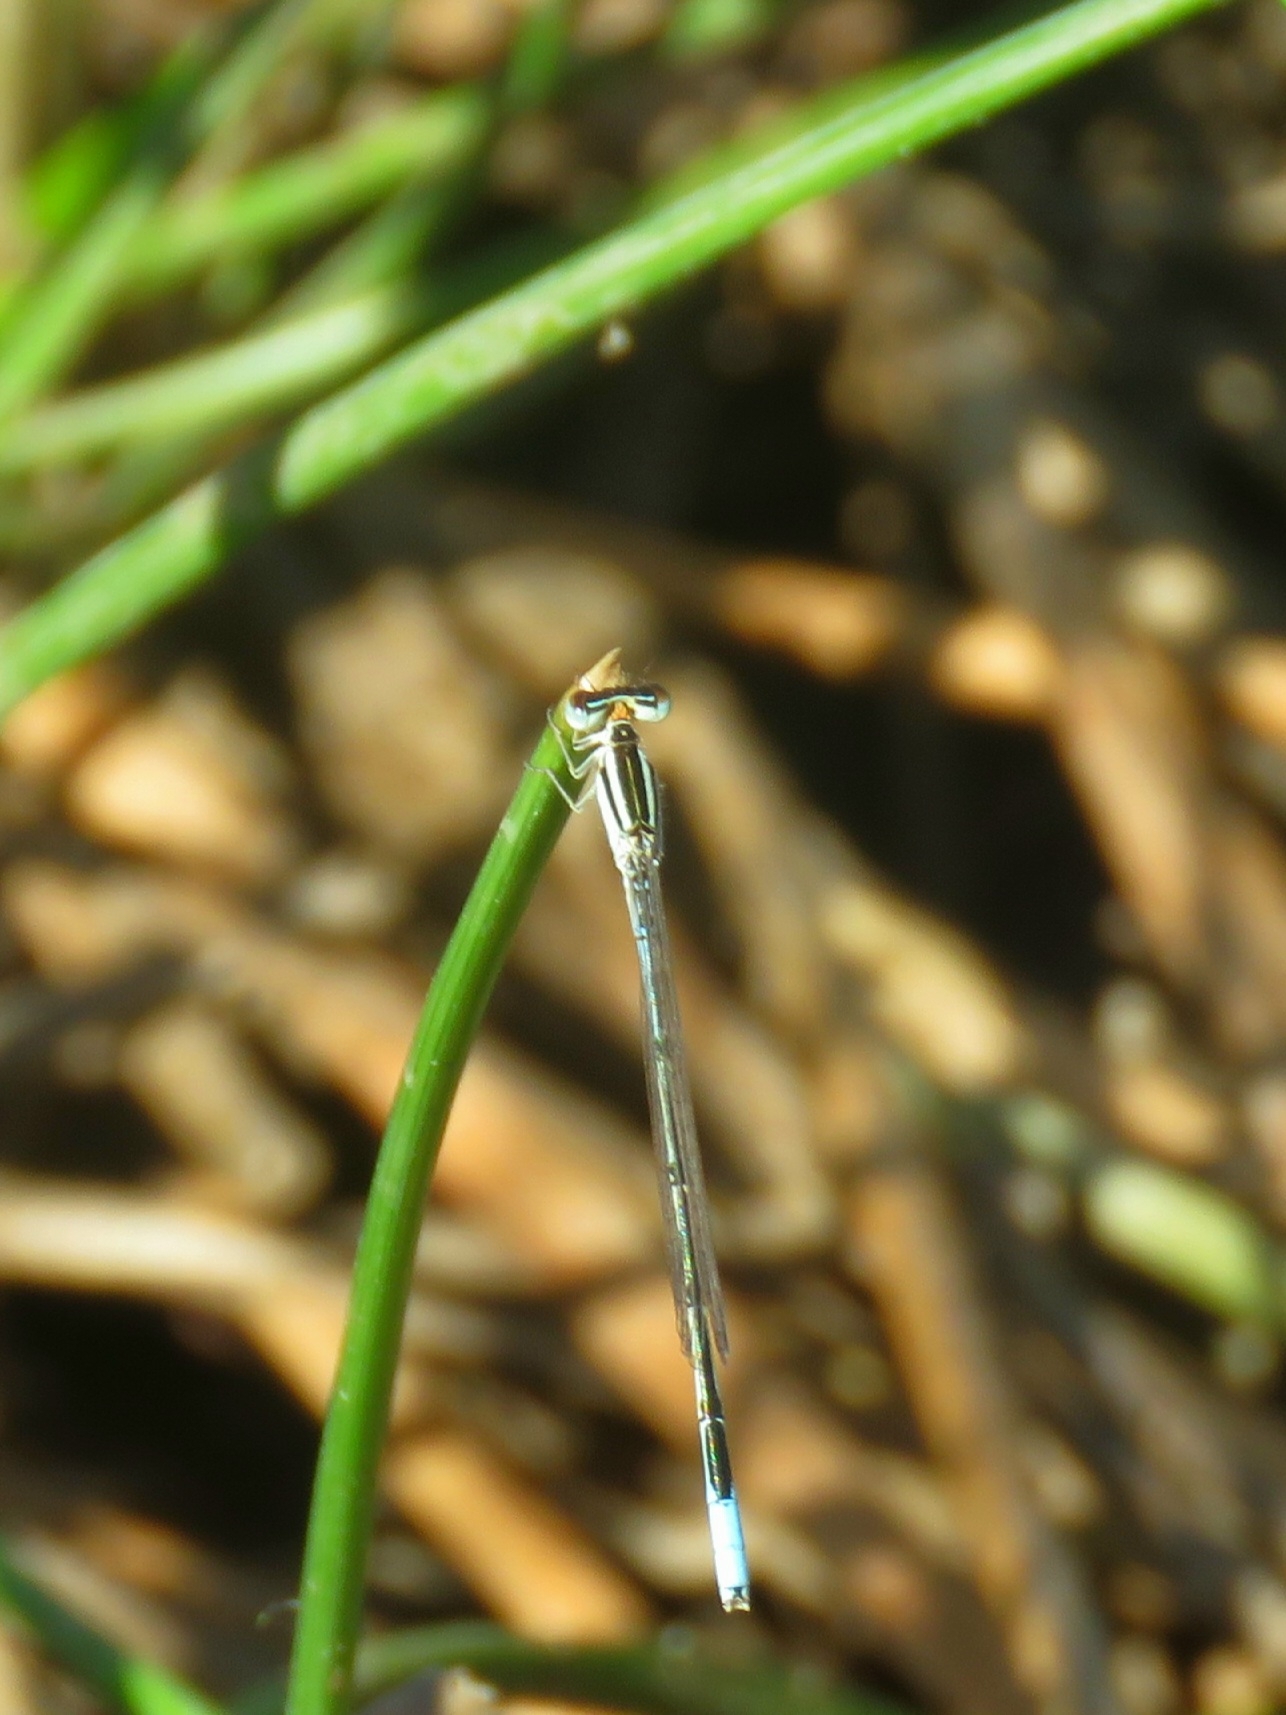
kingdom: Animalia
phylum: Arthropoda
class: Insecta
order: Odonata
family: Coenagrionidae
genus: Africallagma
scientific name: Africallagma glaucum
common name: Swamp bluet
